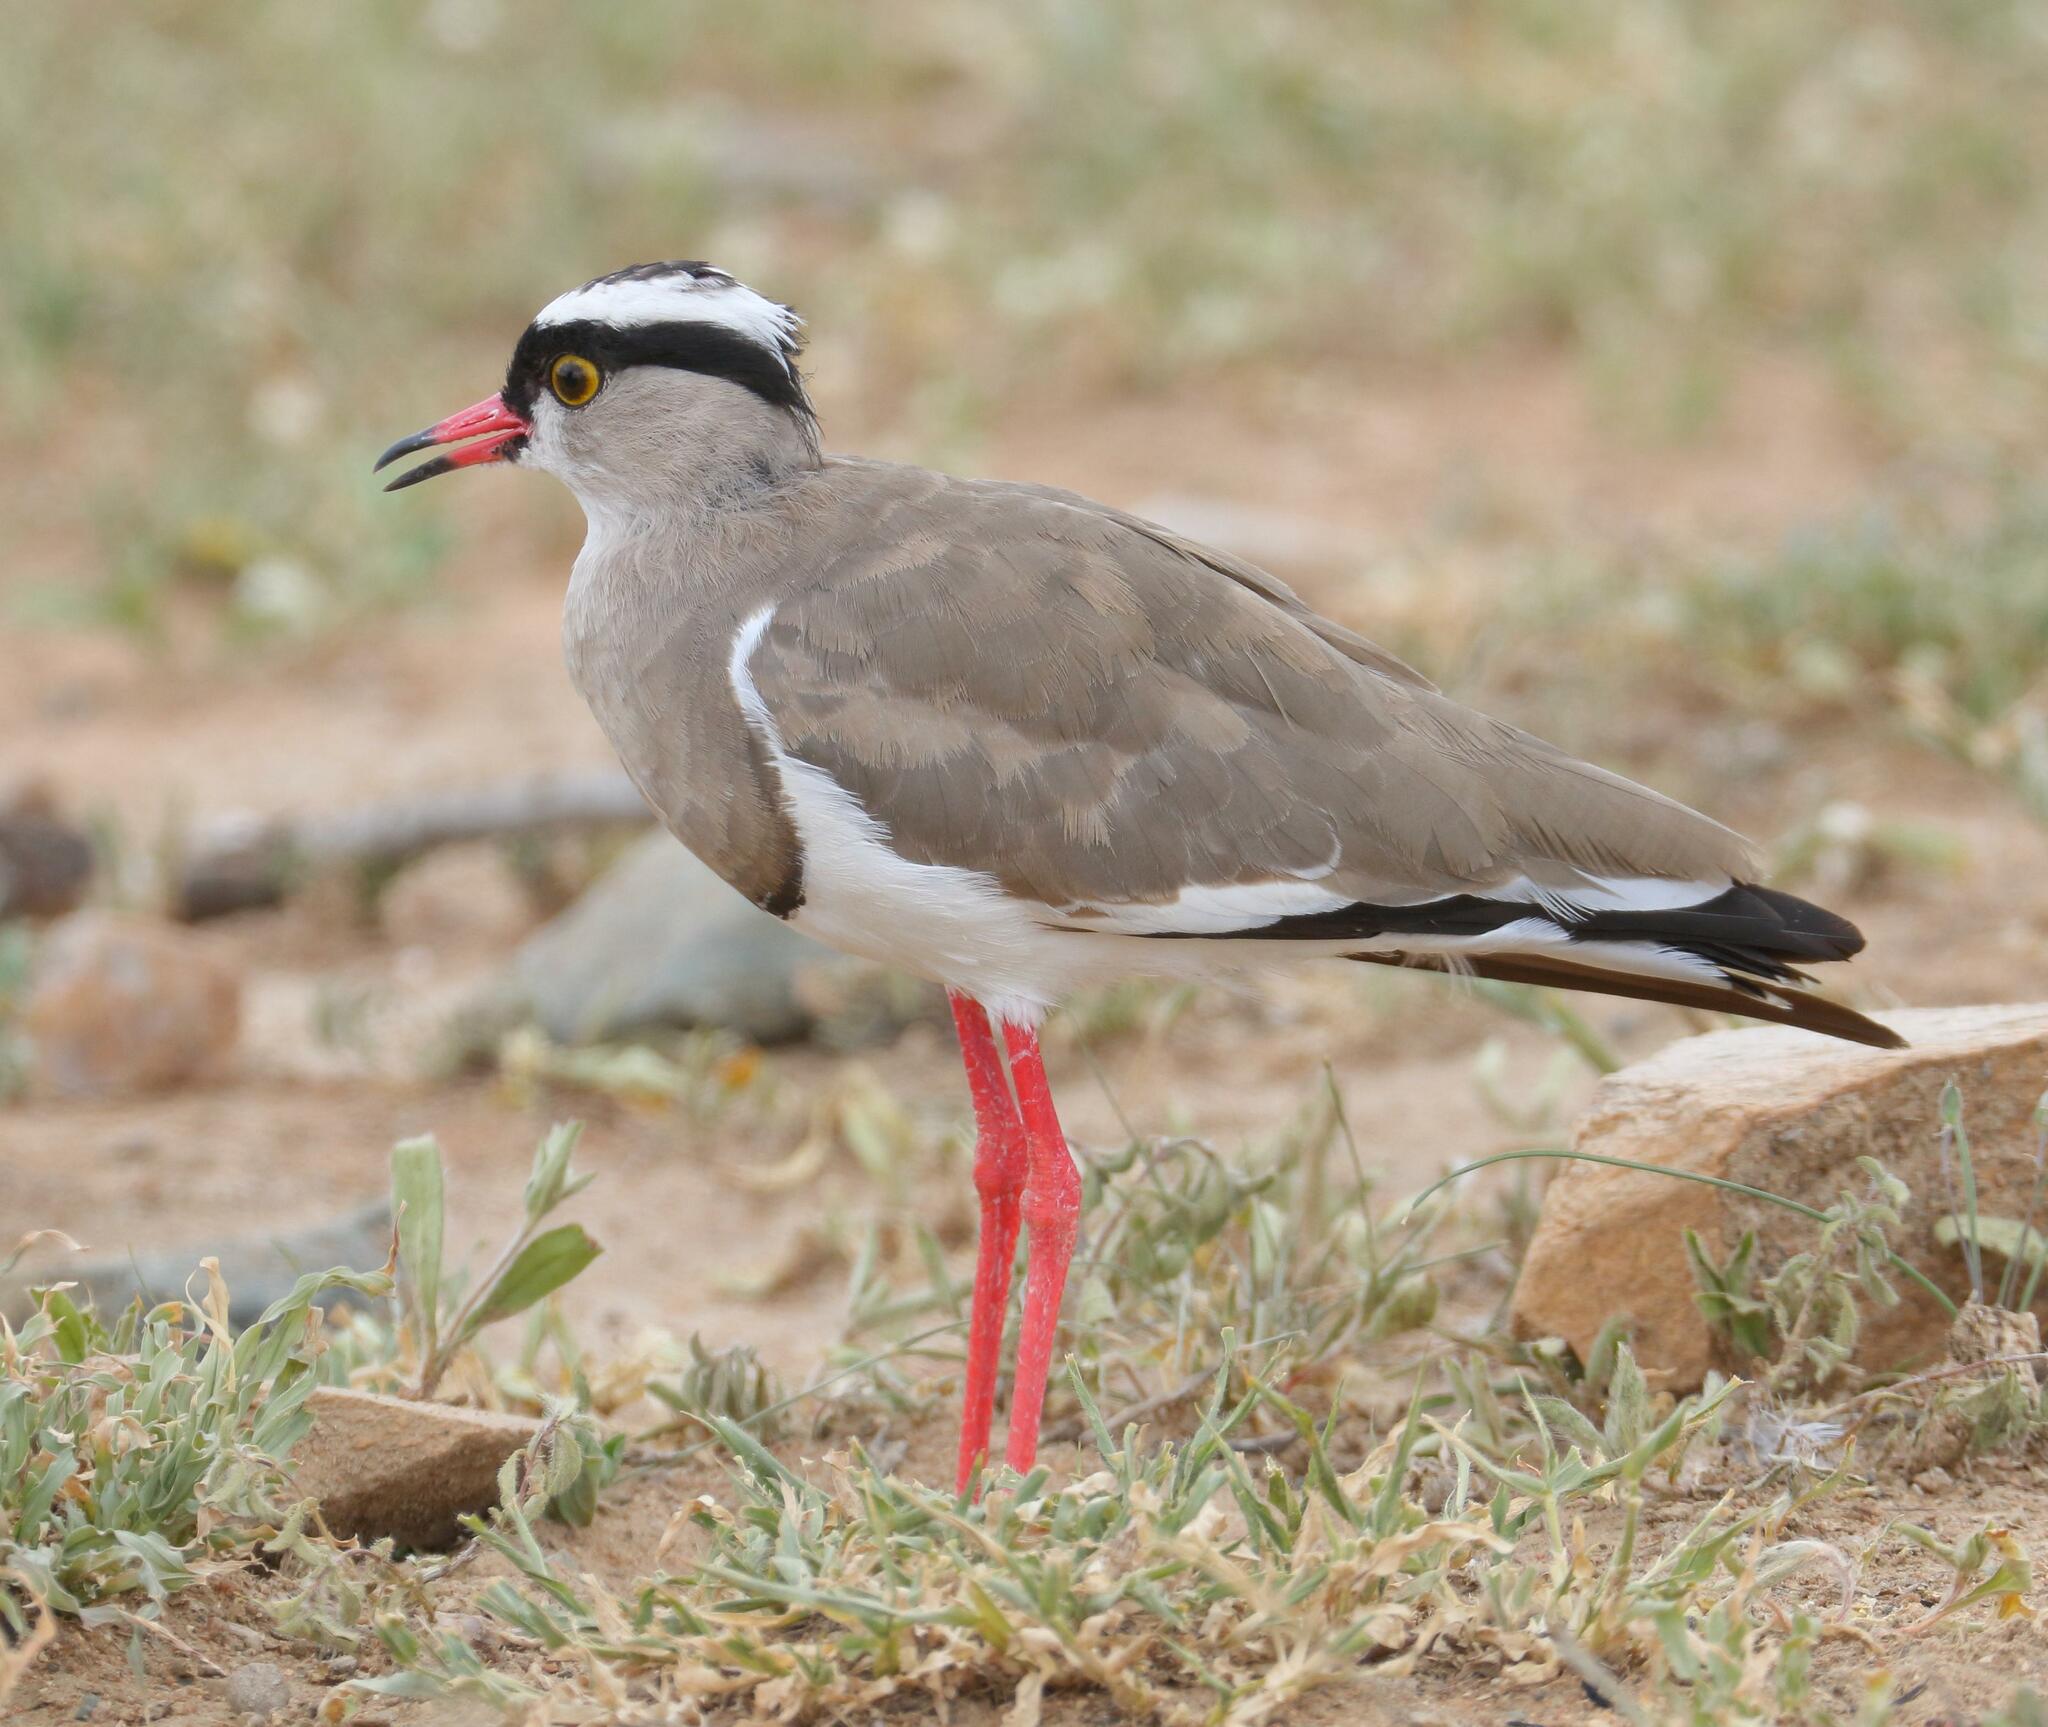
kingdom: Animalia
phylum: Chordata
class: Aves
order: Charadriiformes
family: Charadriidae
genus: Vanellus
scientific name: Vanellus coronatus
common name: Crowned lapwing
